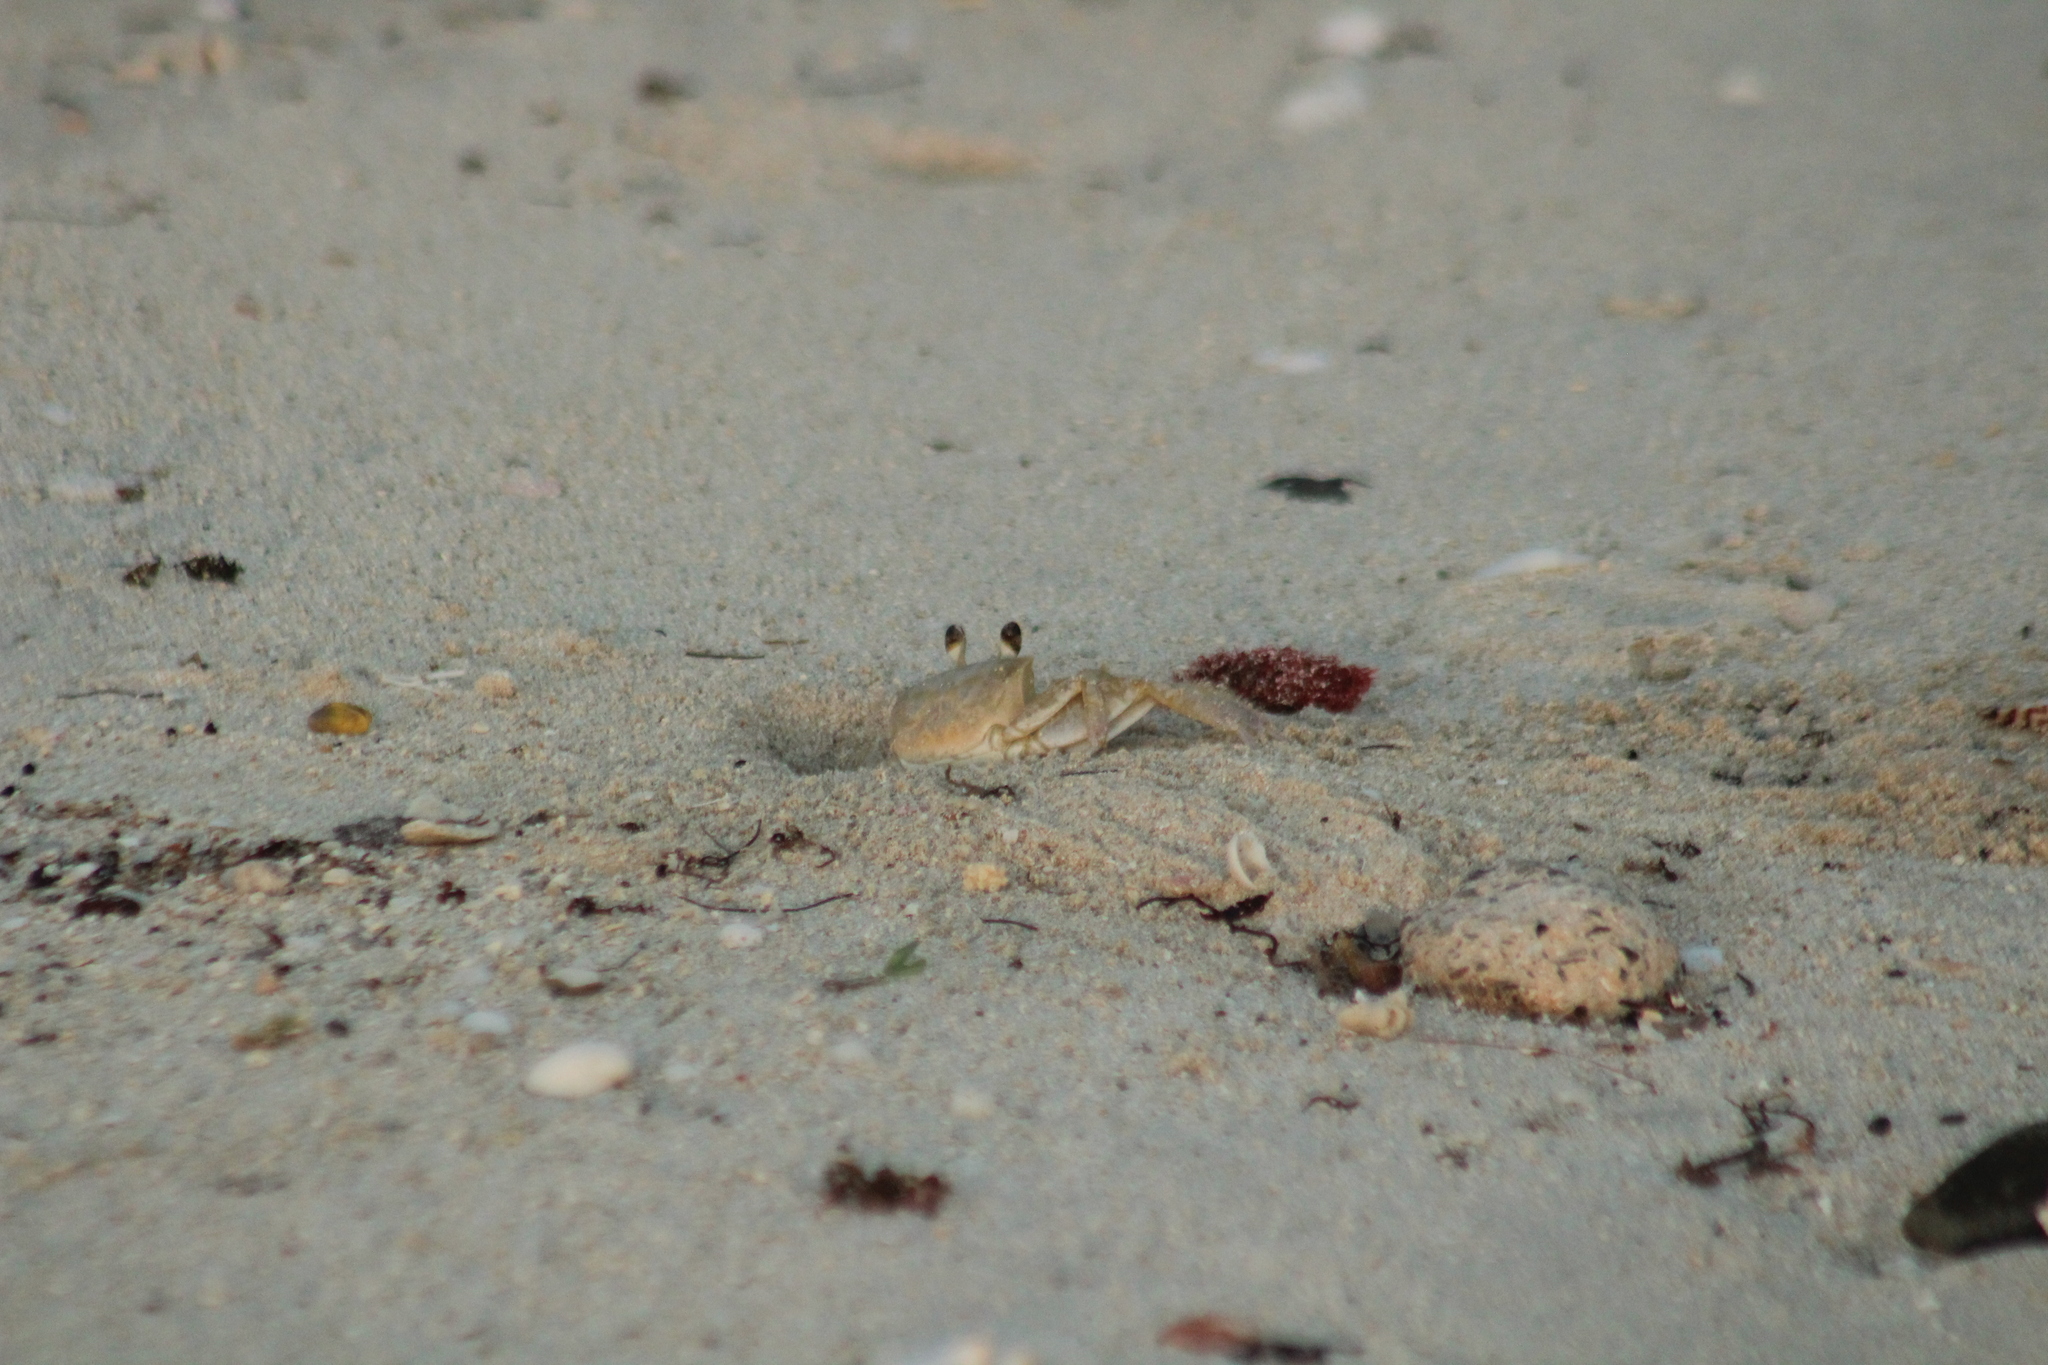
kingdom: Animalia
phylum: Arthropoda
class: Malacostraca
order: Decapoda
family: Ocypodidae
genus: Ocypode
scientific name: Ocypode quadrata
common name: Ghost crab
